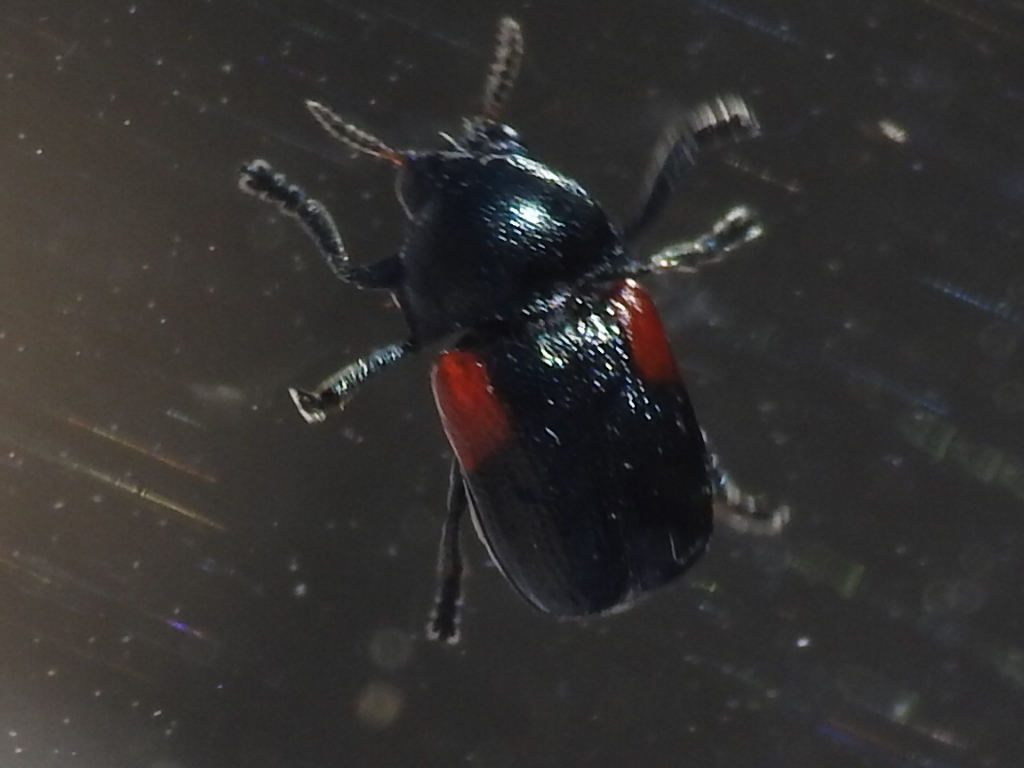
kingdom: Animalia
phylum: Arthropoda
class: Insecta
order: Coleoptera
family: Chrysomelidae
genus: Saxinis
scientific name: Saxinis omogera
